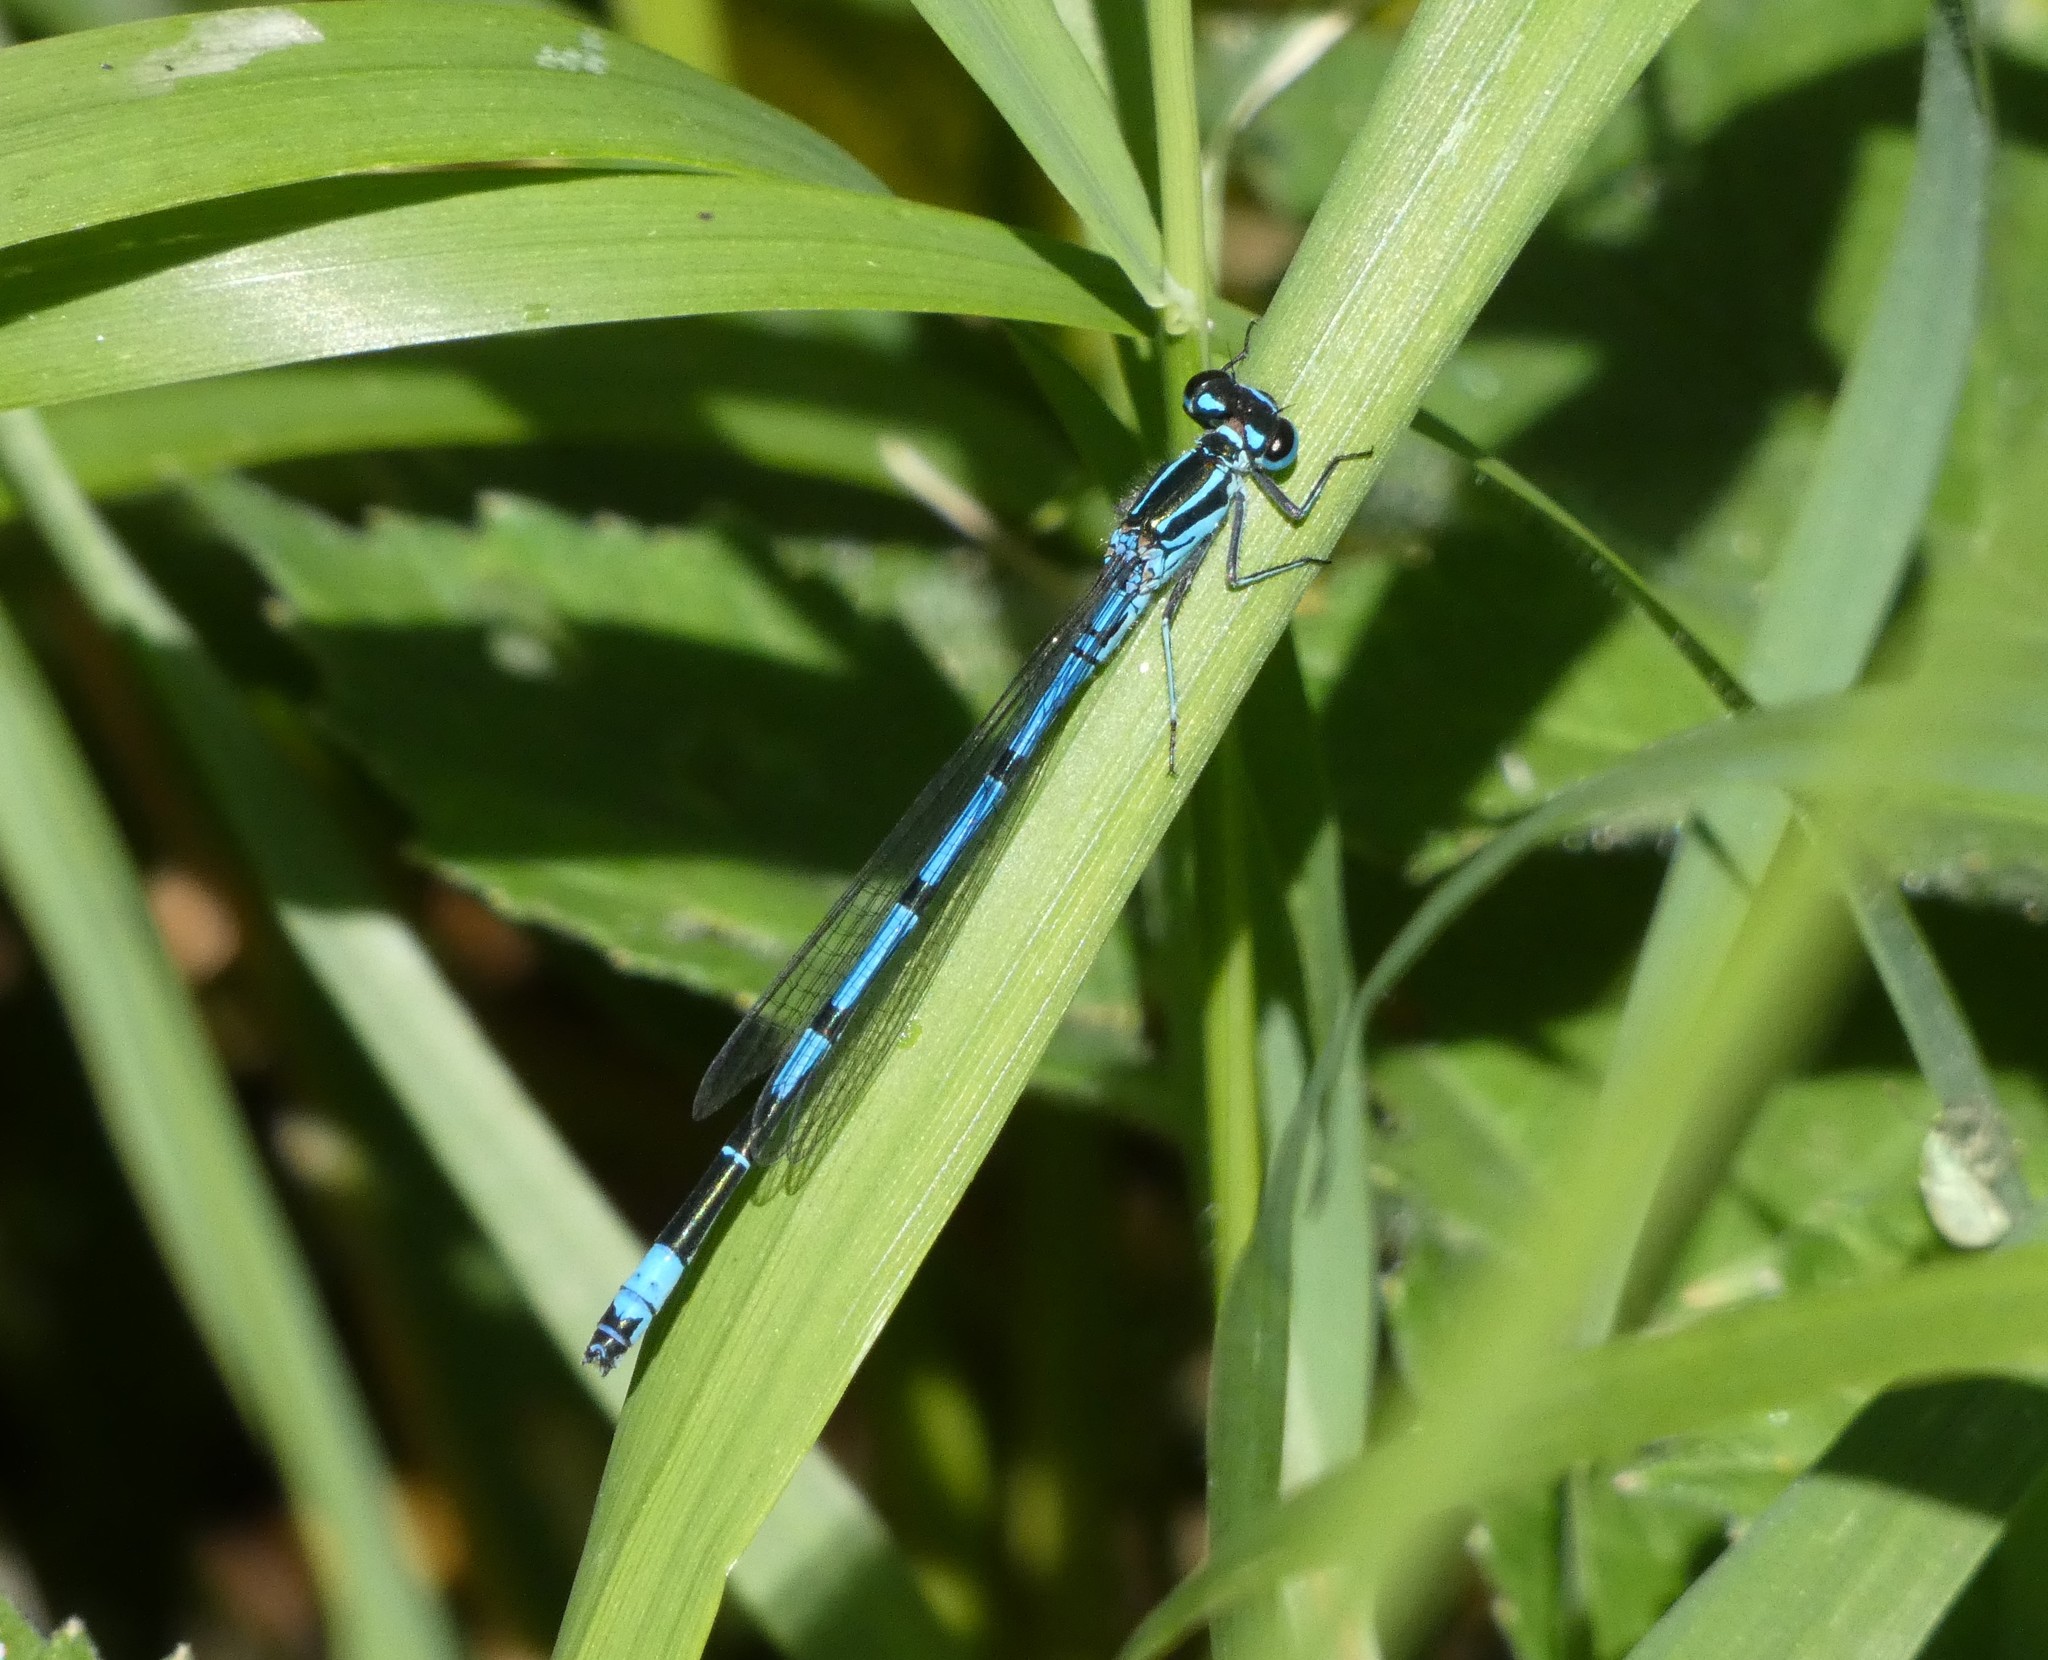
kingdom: Animalia
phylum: Arthropoda
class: Insecta
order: Odonata
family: Coenagrionidae
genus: Coenagrion
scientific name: Coenagrion puella
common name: Azure damselfly
